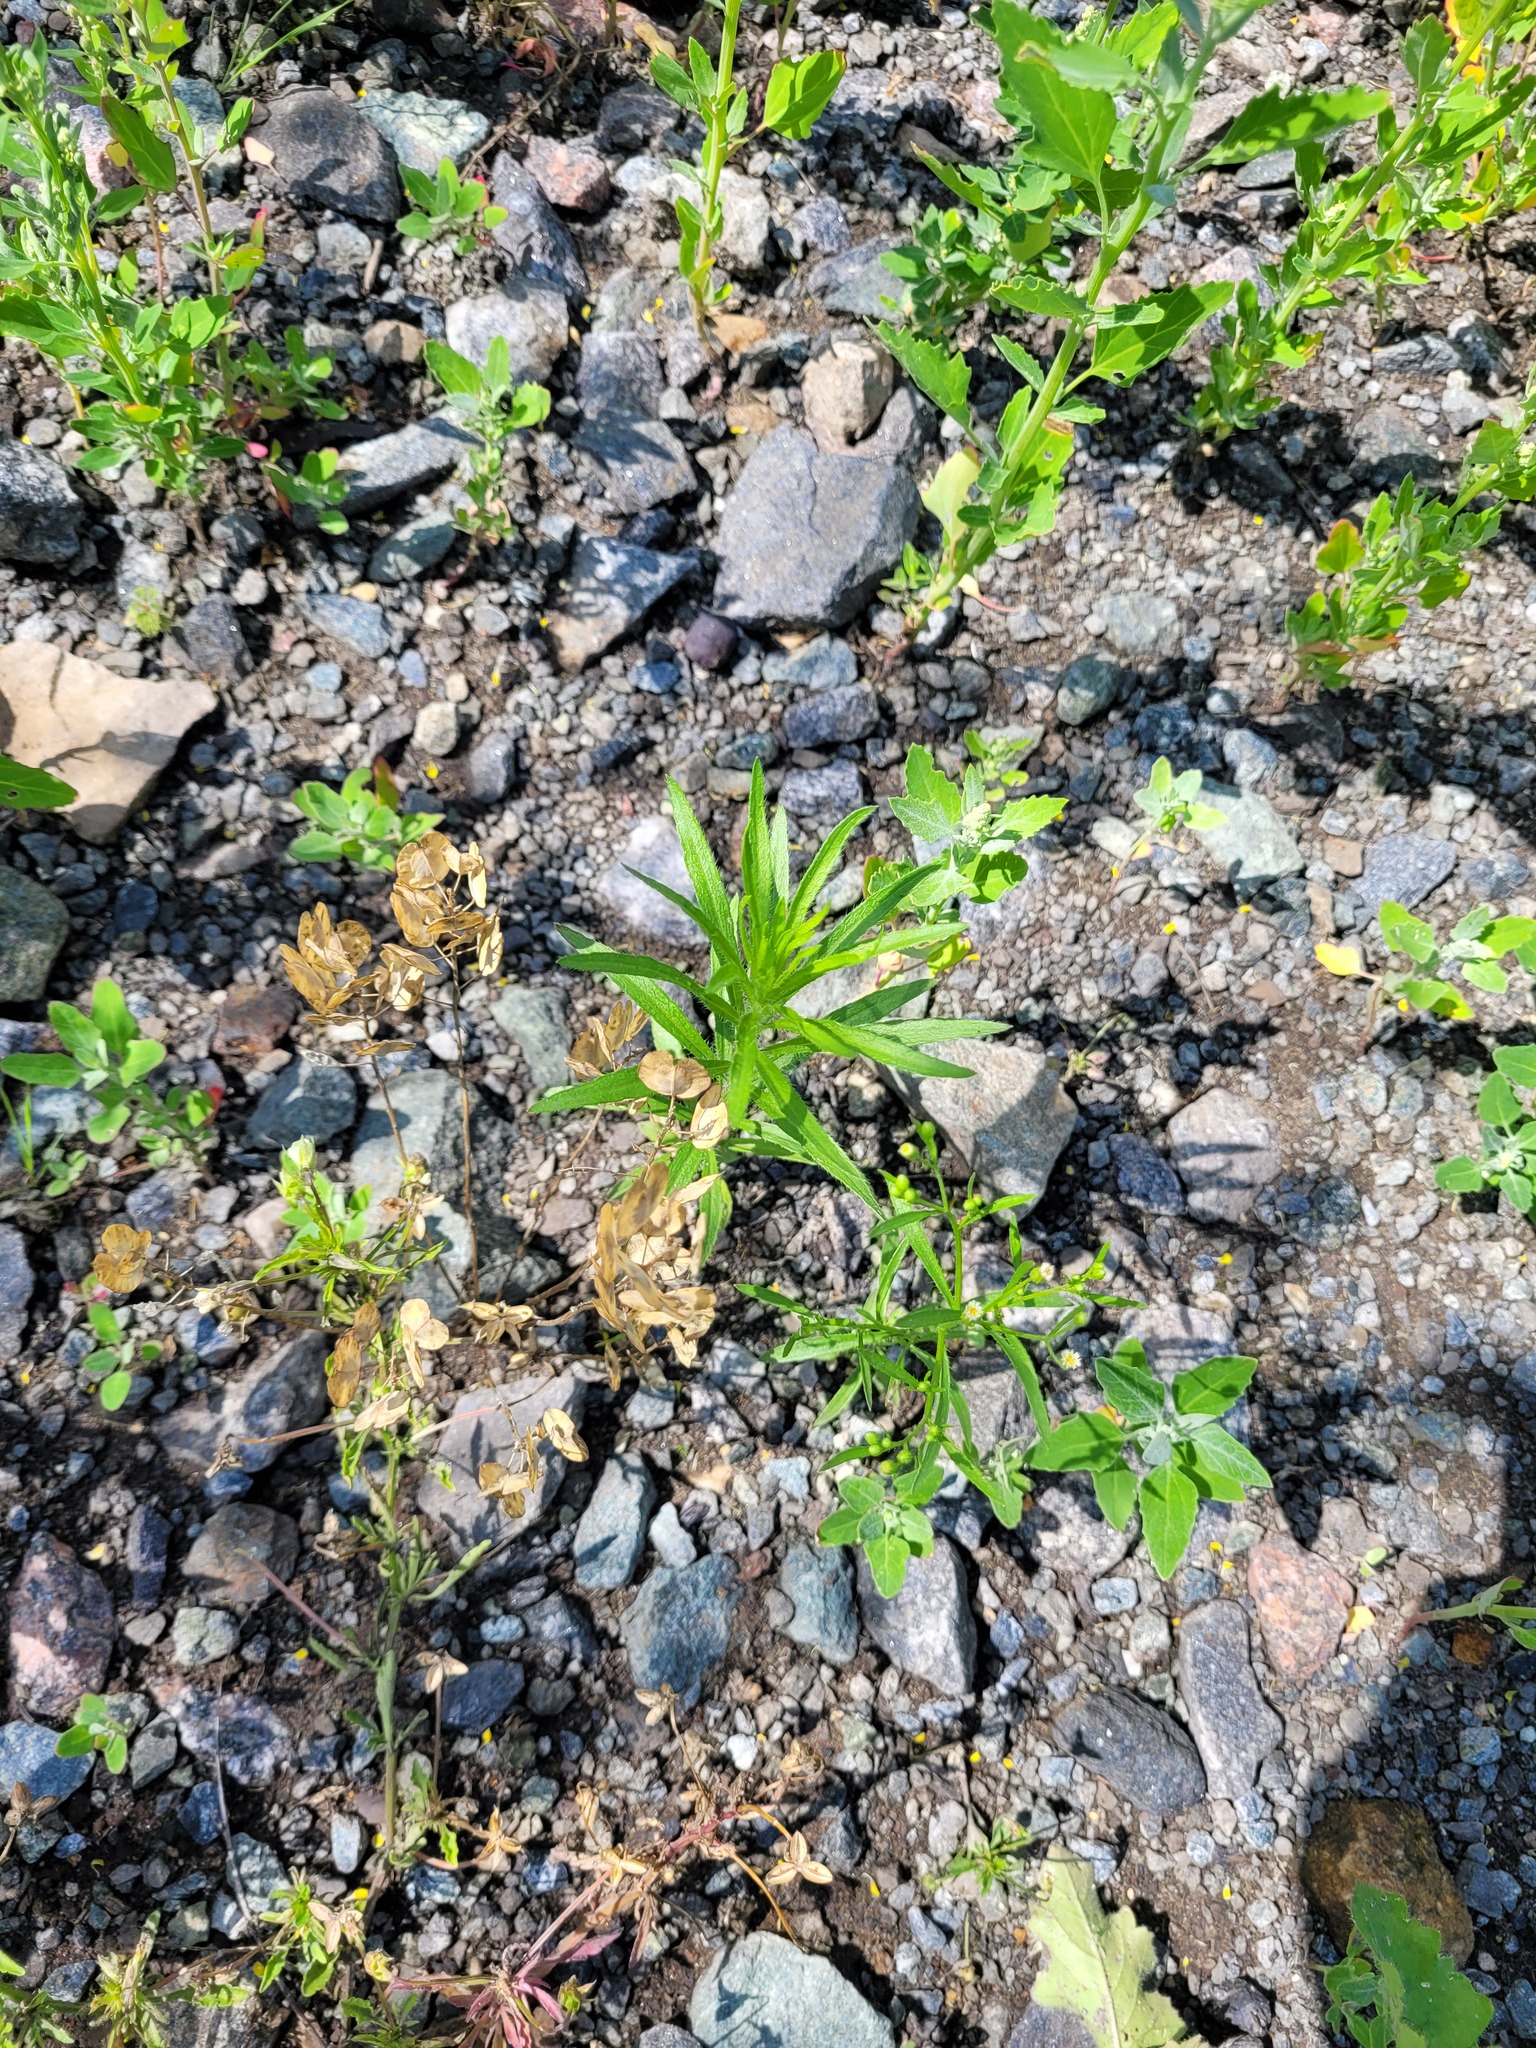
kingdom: Plantae
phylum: Tracheophyta
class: Magnoliopsida
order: Asterales
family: Asteraceae
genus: Erigeron
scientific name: Erigeron canadensis
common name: Canadian fleabane
